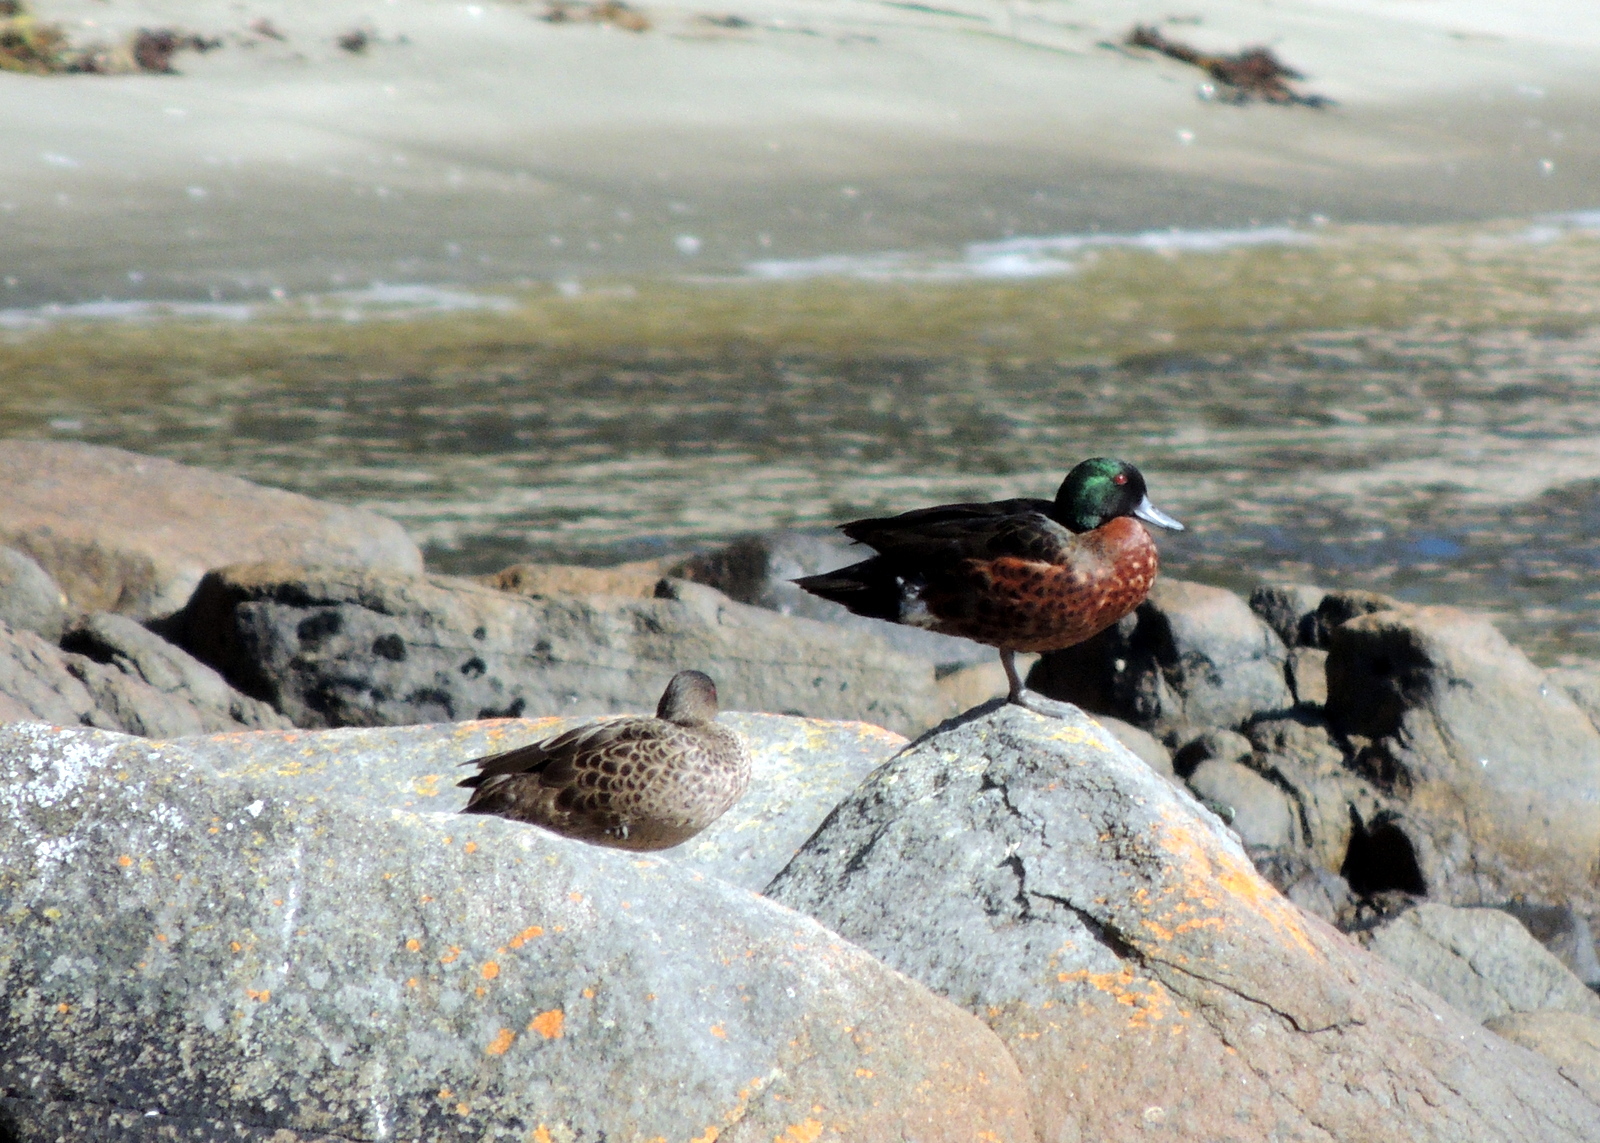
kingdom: Animalia
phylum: Chordata
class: Aves
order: Anseriformes
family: Anatidae
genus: Anas
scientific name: Anas castanea
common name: Chestnut teal
